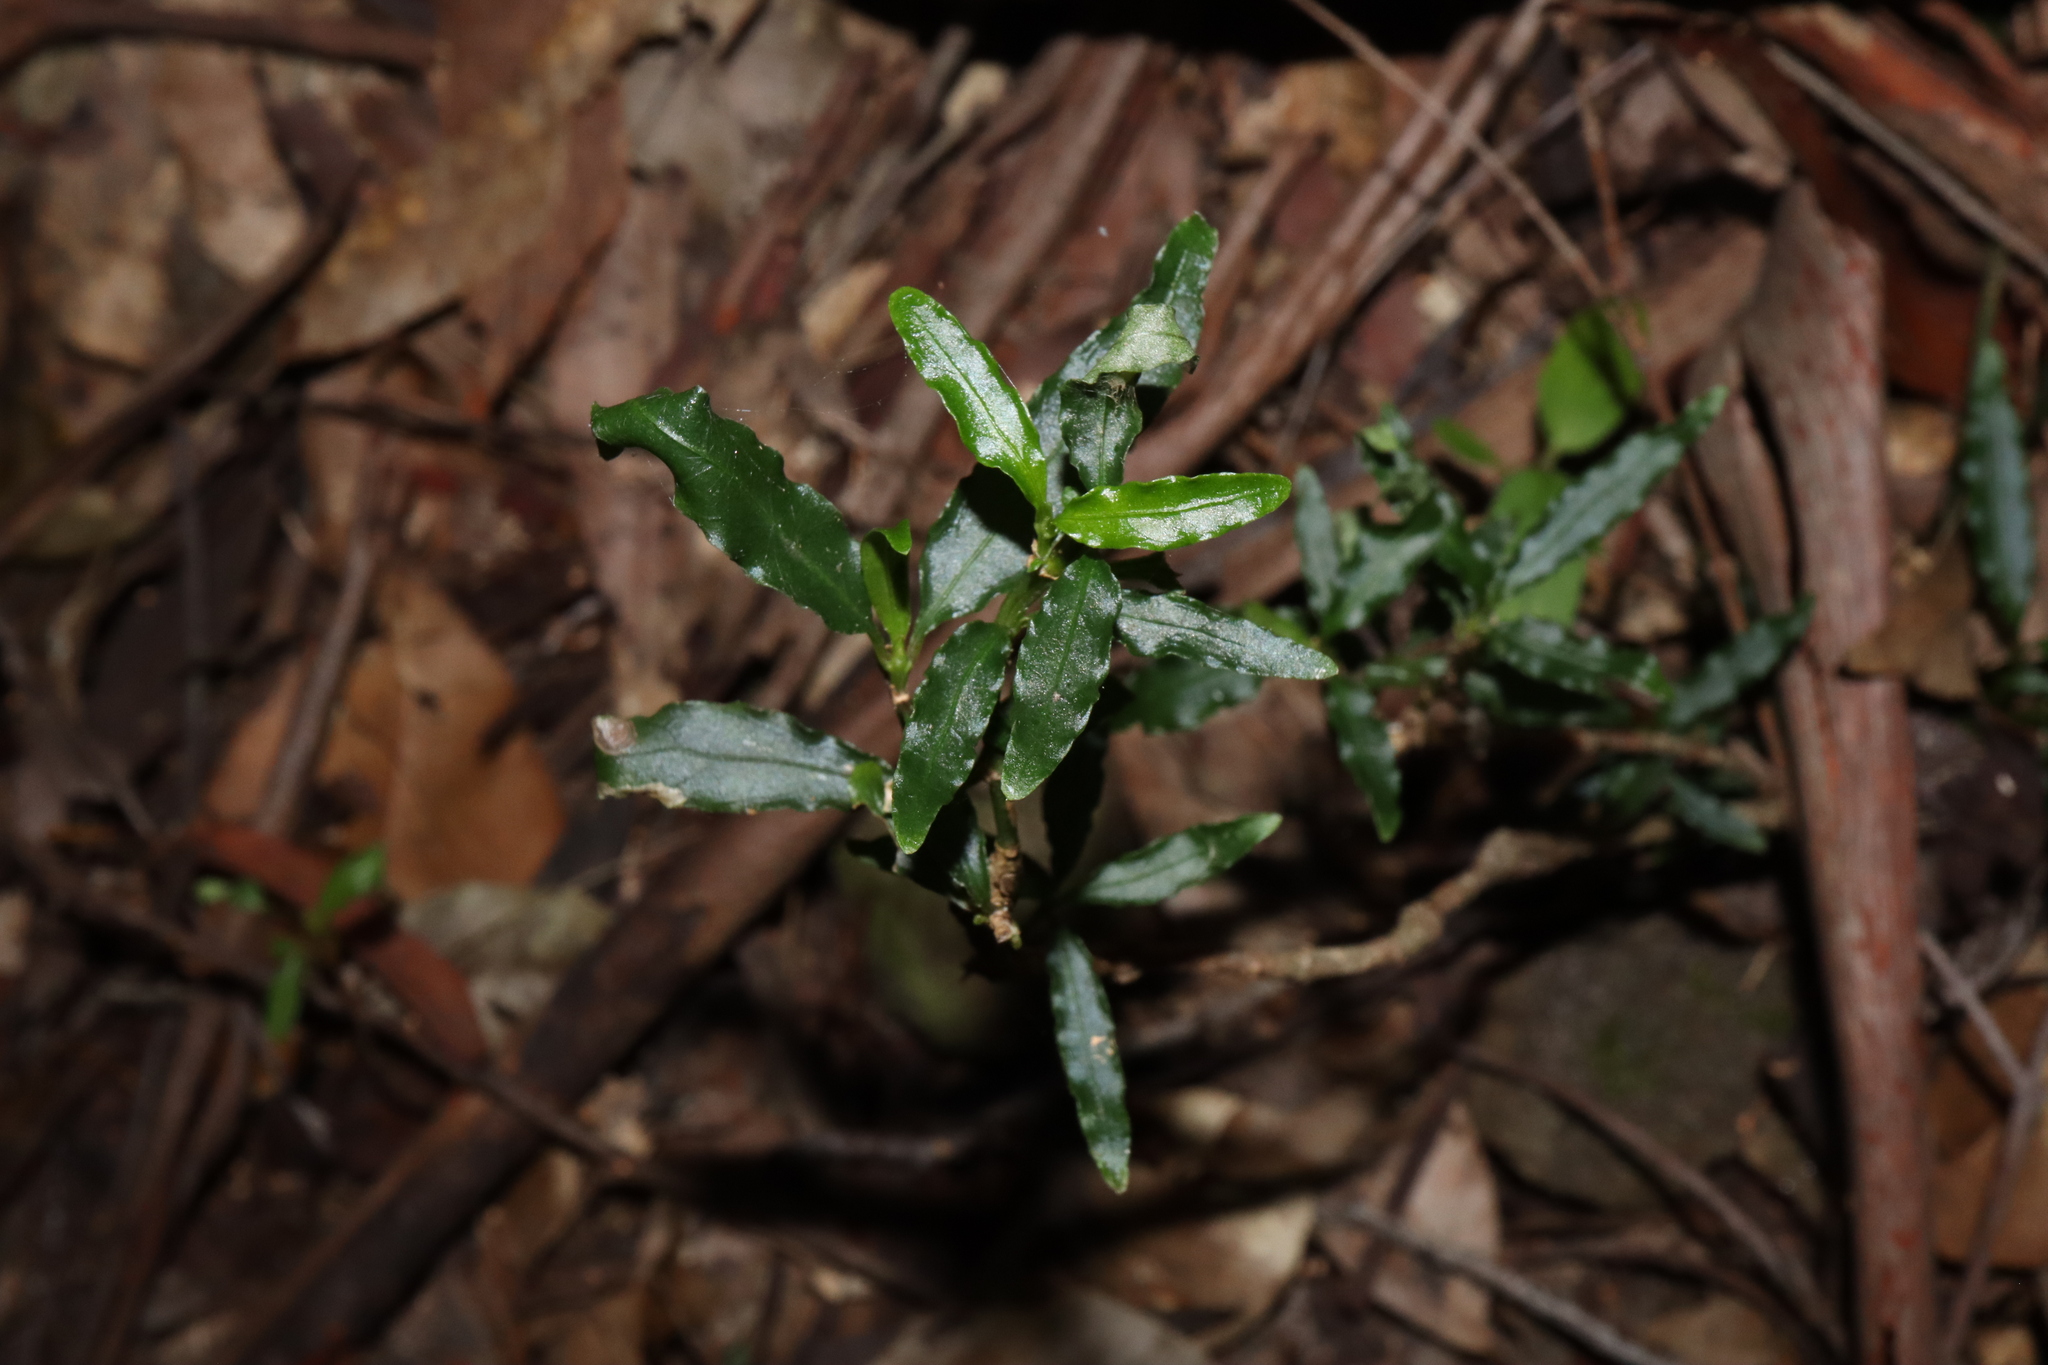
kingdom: Plantae
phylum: Tracheophyta
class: Magnoliopsida
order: Gentianales
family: Rubiaceae
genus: Gynochthodes
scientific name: Gynochthodes jasminoides
